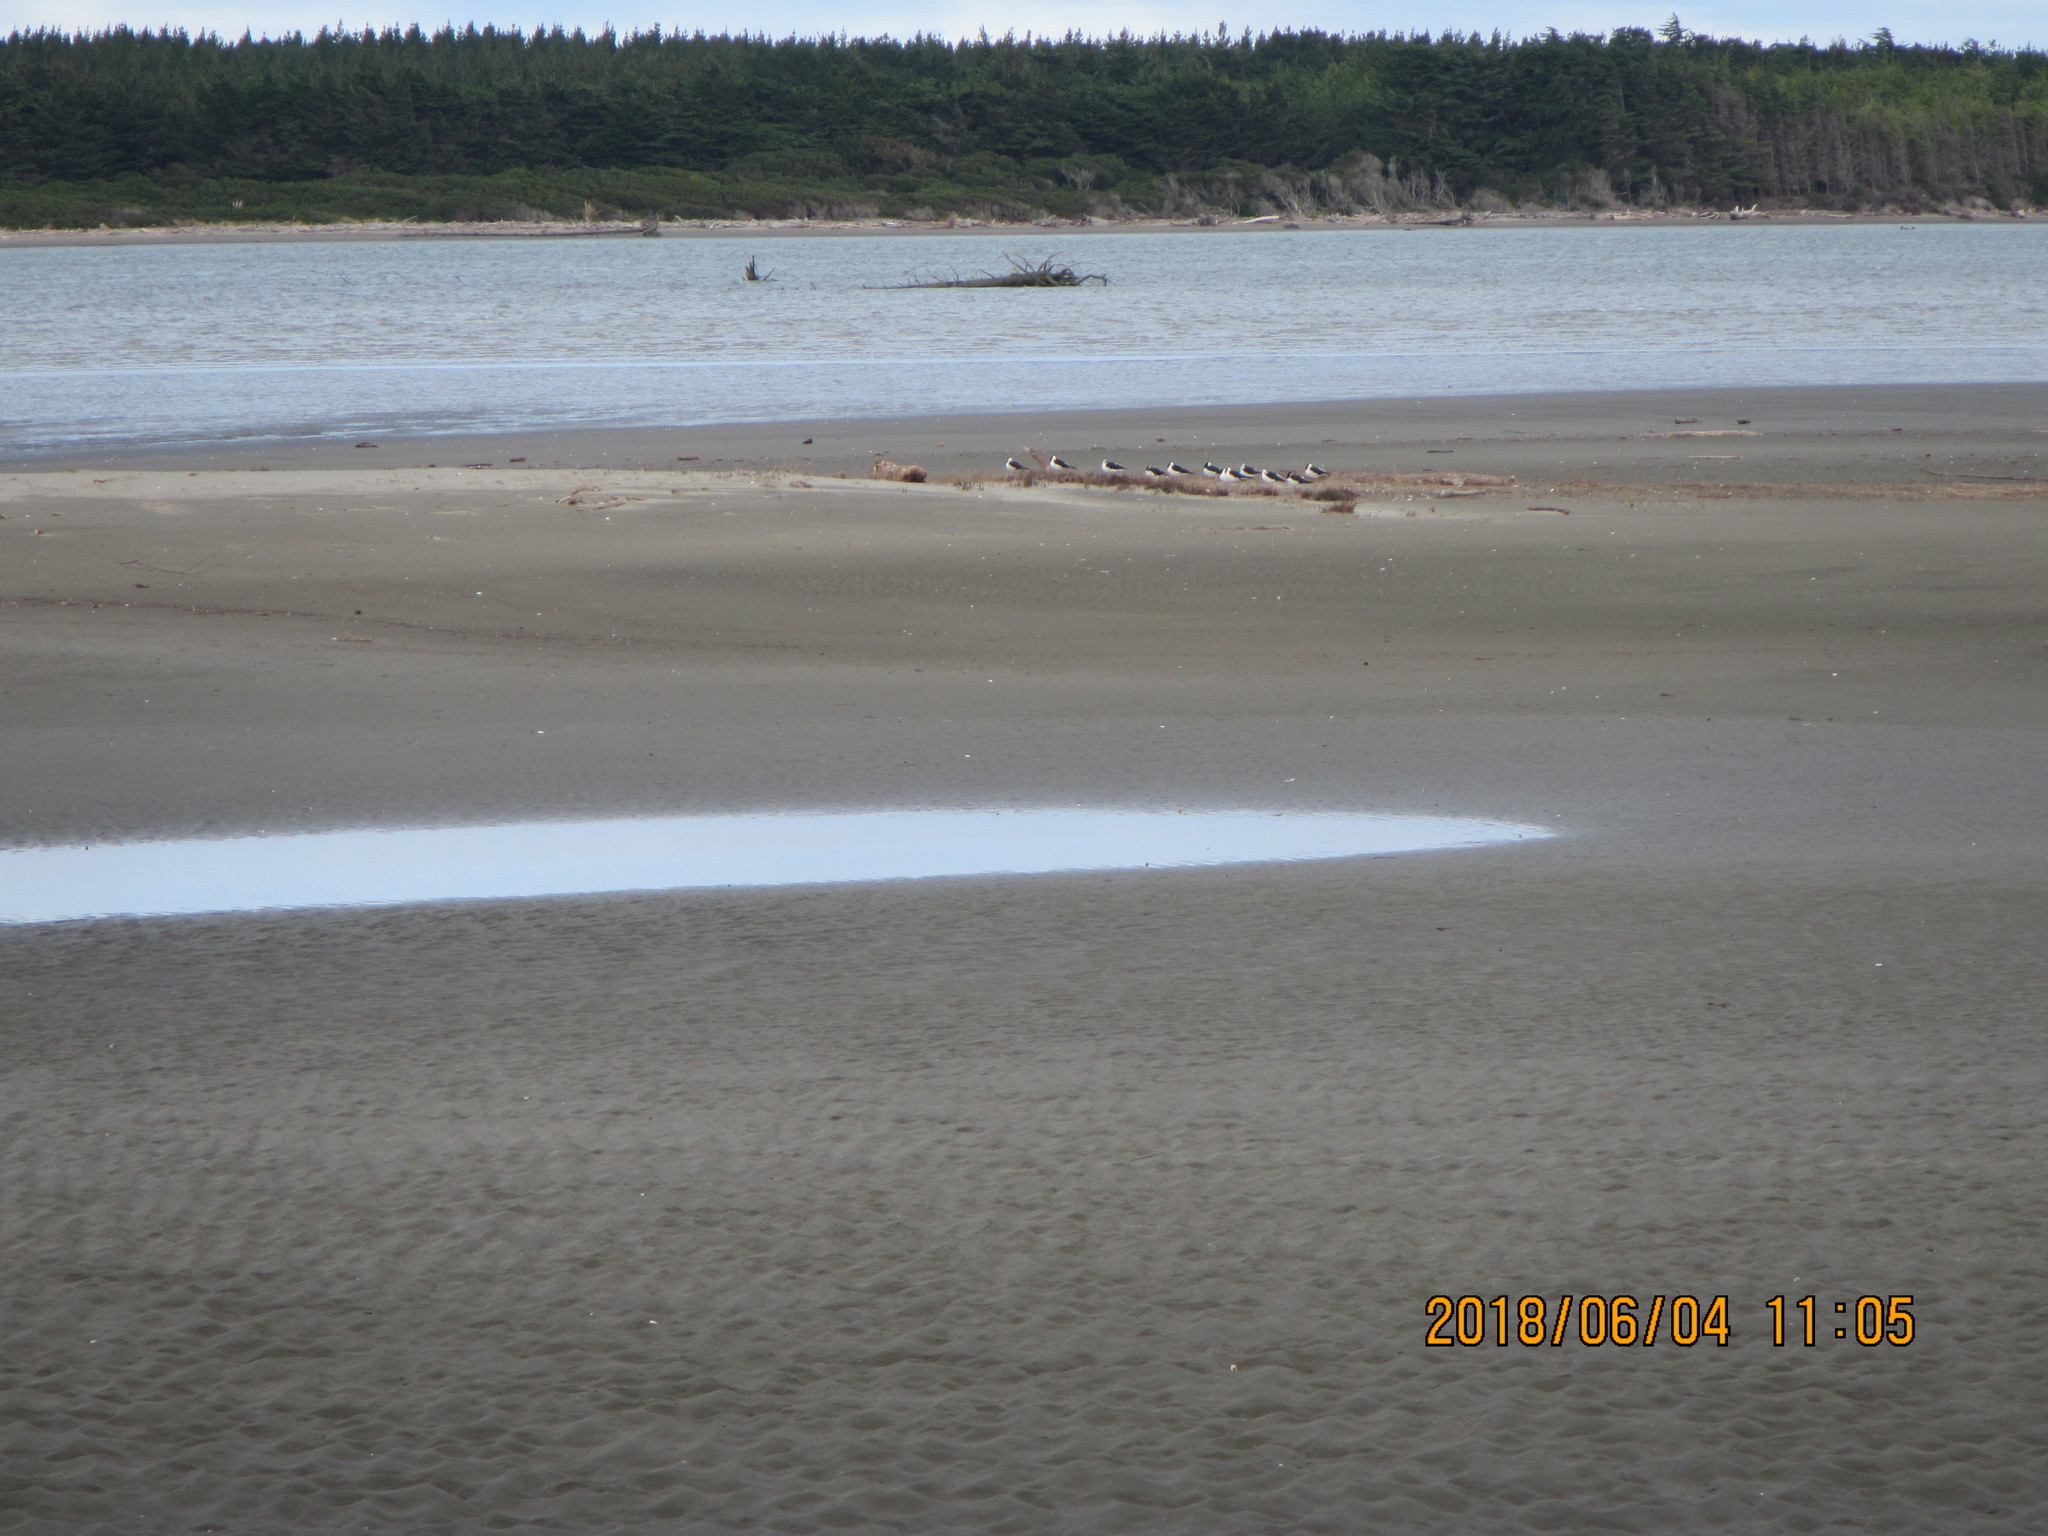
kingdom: Animalia
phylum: Chordata
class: Aves
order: Charadriiformes
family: Recurvirostridae
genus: Himantopus
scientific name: Himantopus leucocephalus
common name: White-headed stilt
